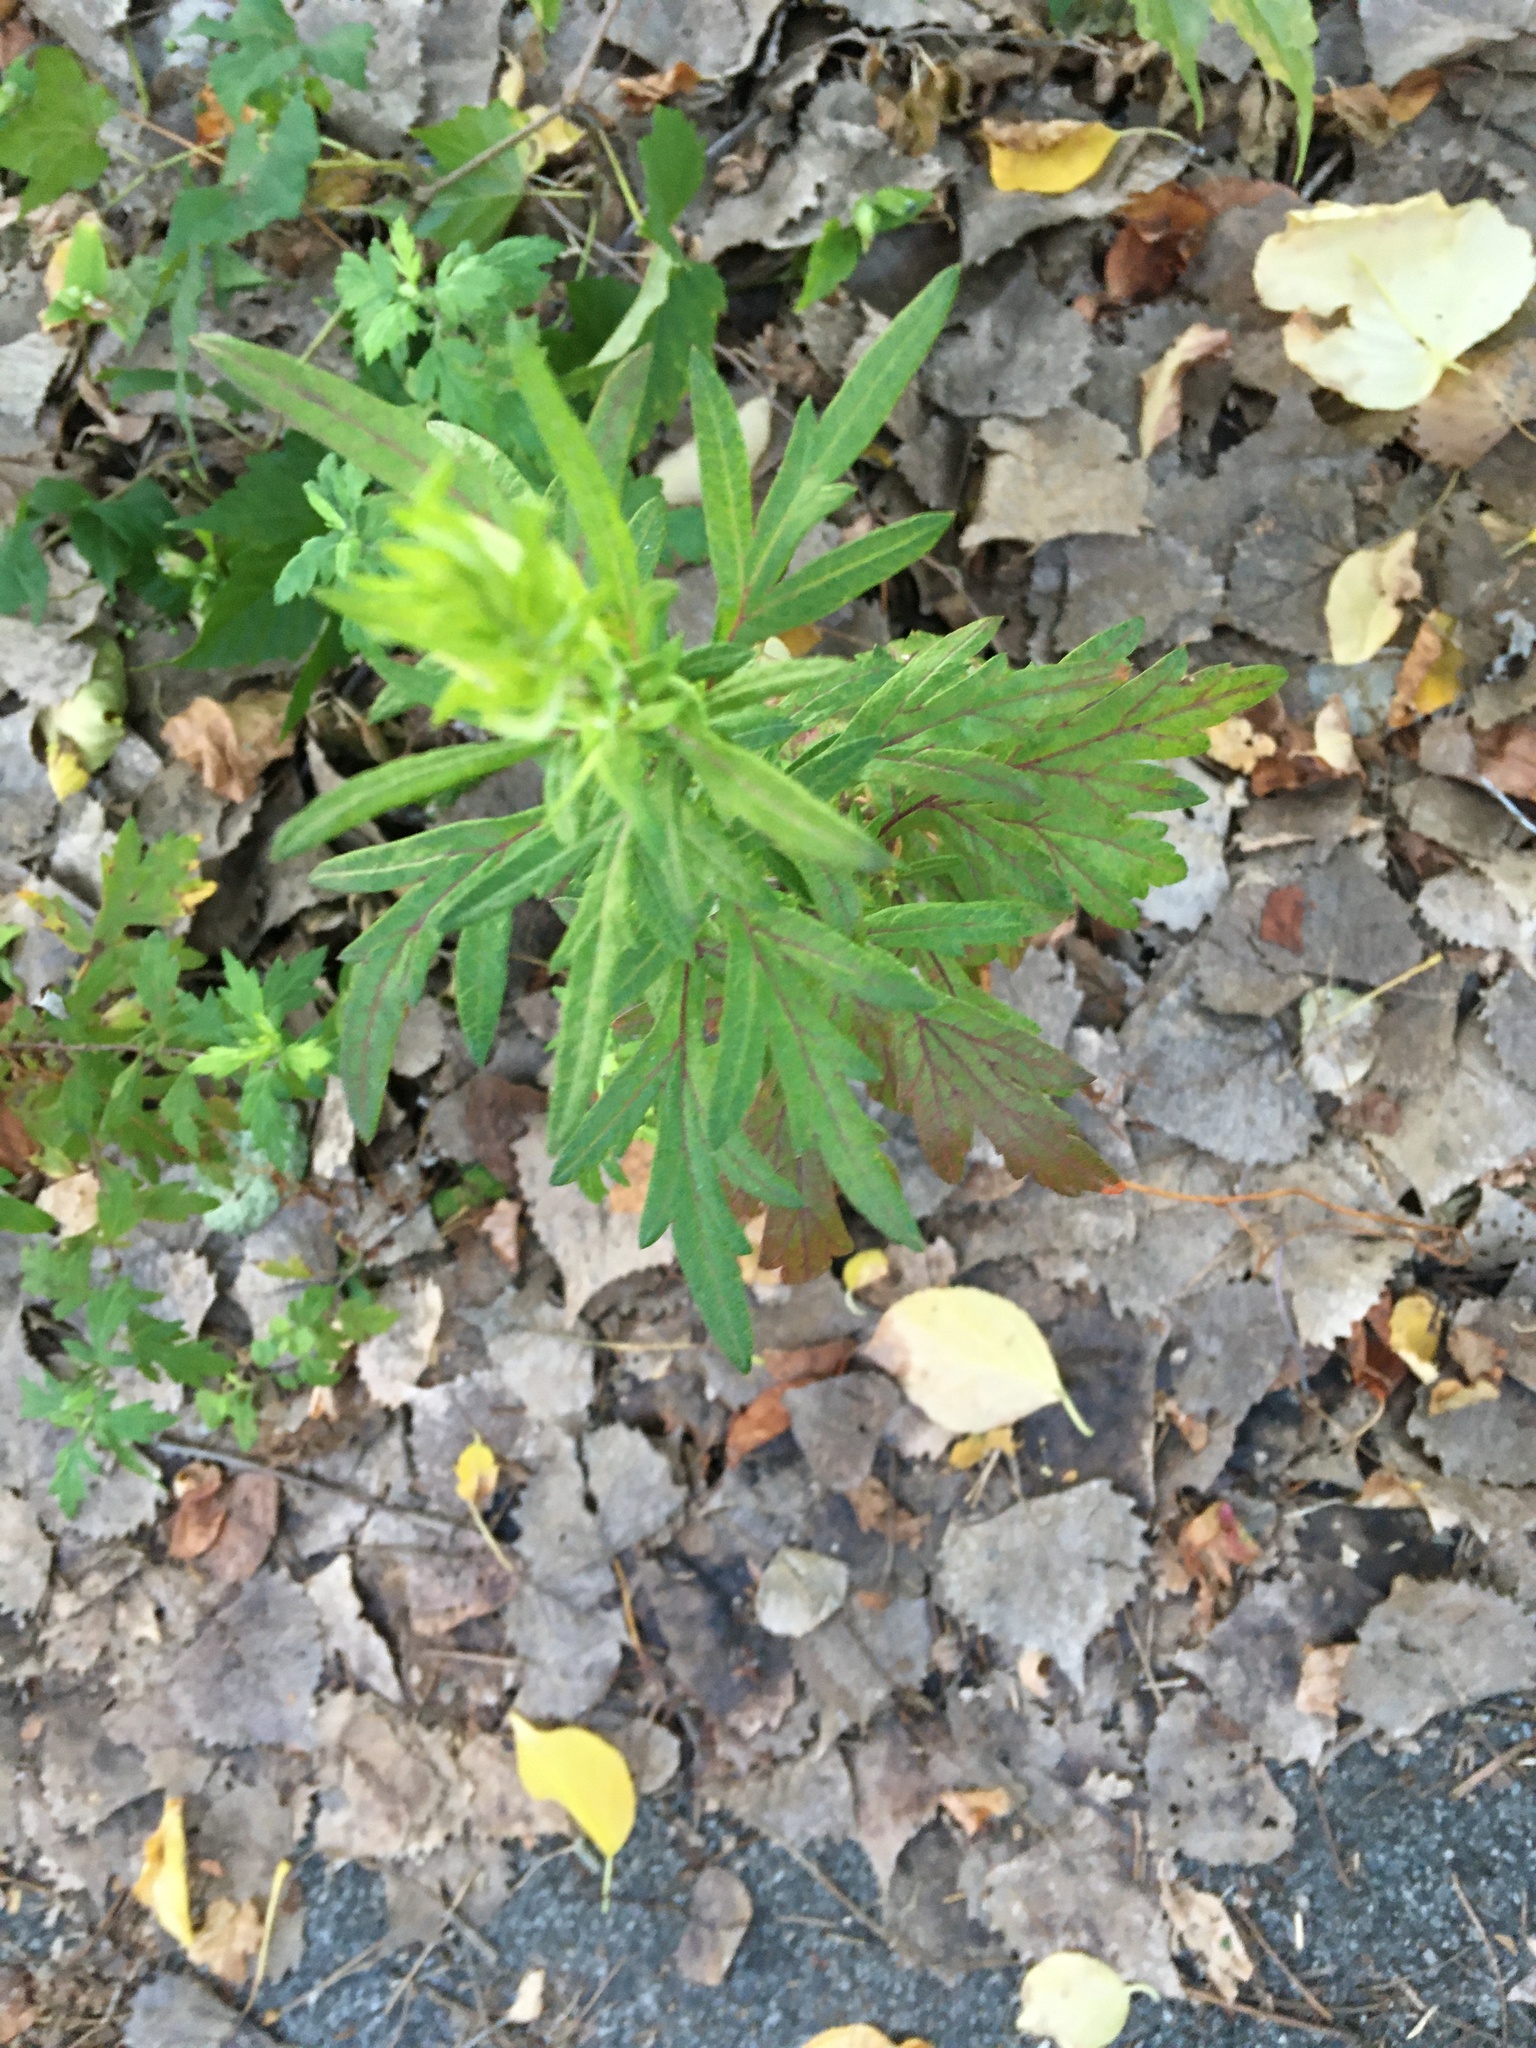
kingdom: Plantae
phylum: Tracheophyta
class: Magnoliopsida
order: Asterales
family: Asteraceae
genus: Artemisia
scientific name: Artemisia vulgaris
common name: Mugwort
